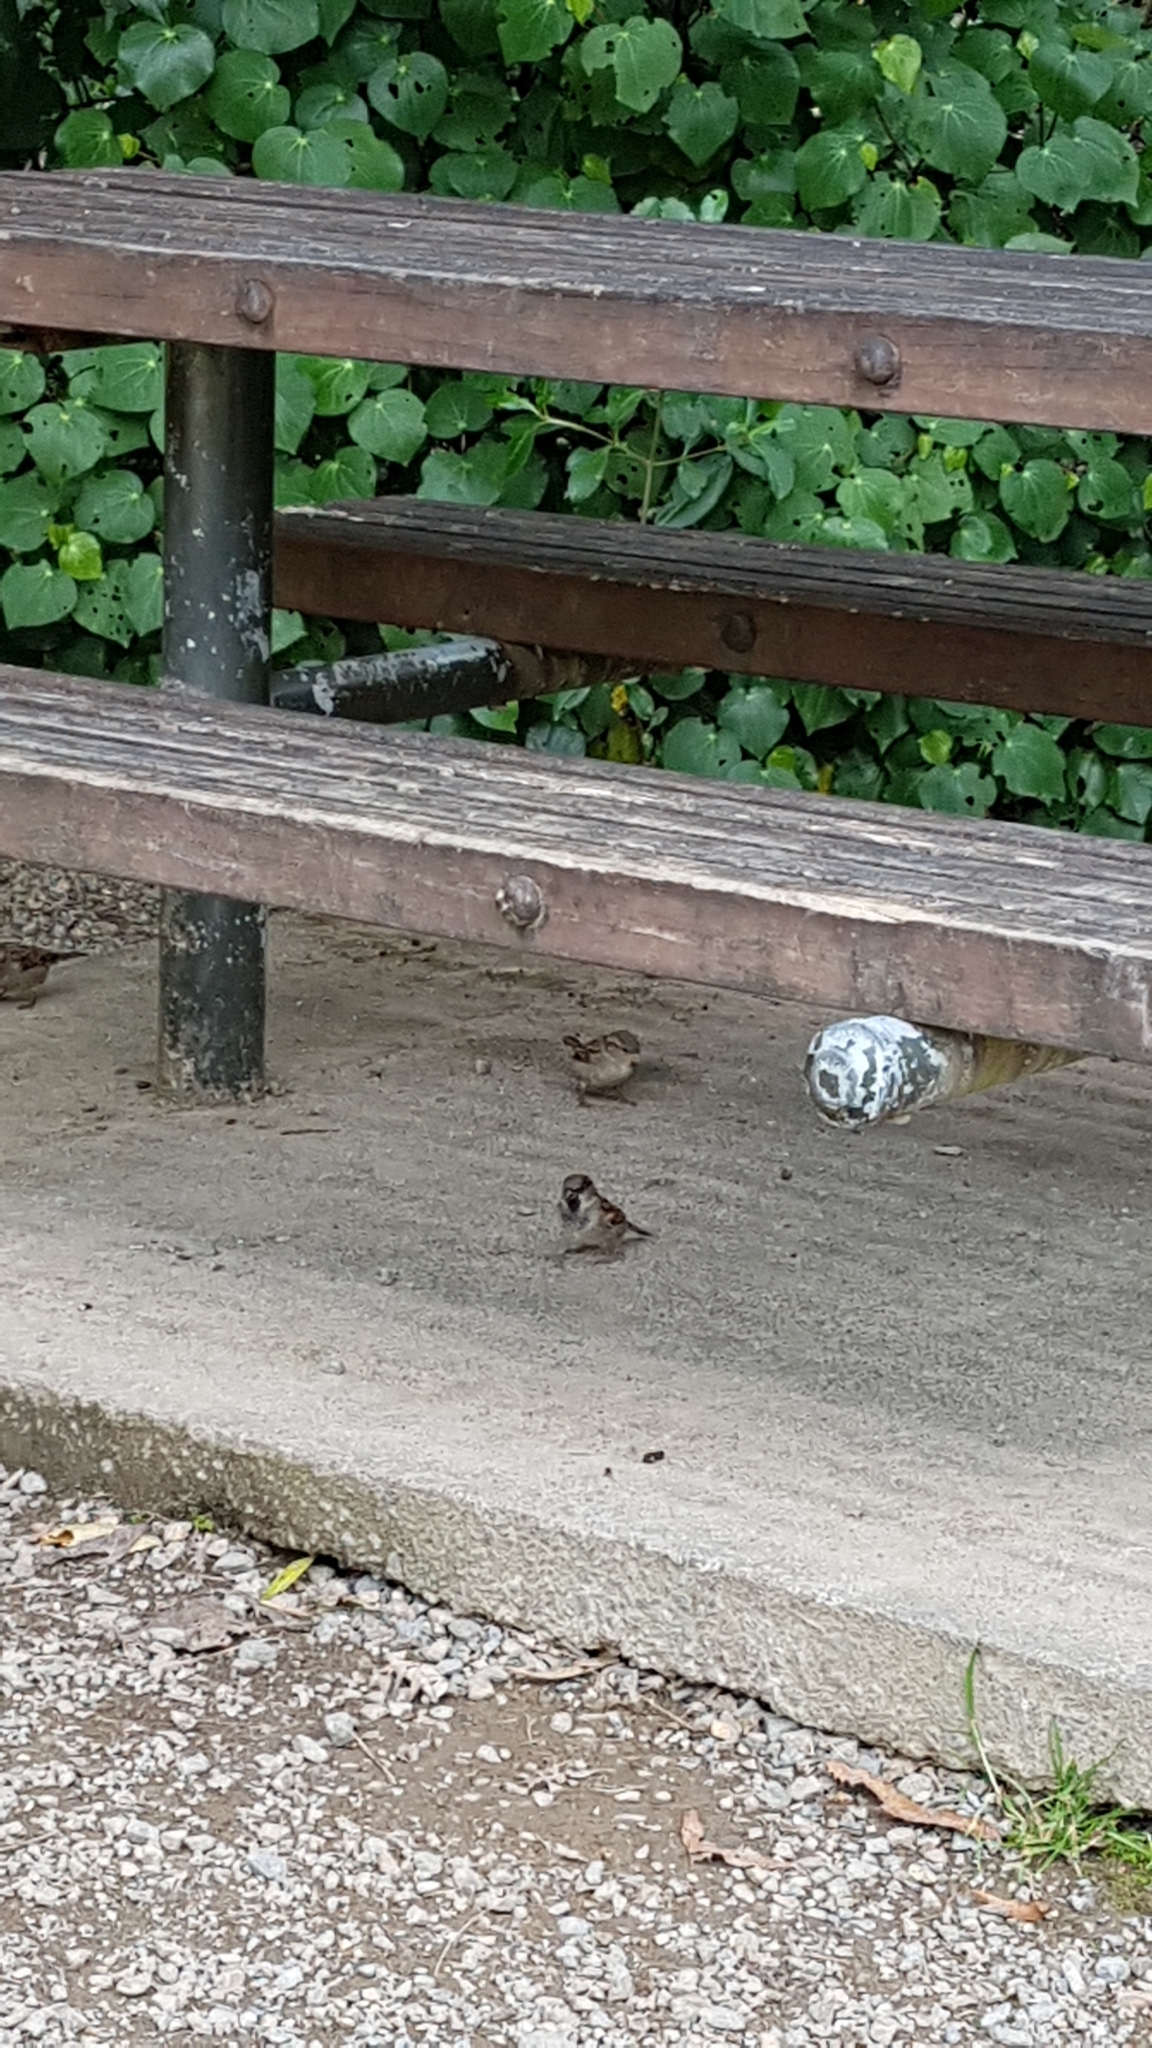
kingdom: Animalia
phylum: Chordata
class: Aves
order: Passeriformes
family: Passeridae
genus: Passer
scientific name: Passer domesticus
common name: House sparrow
